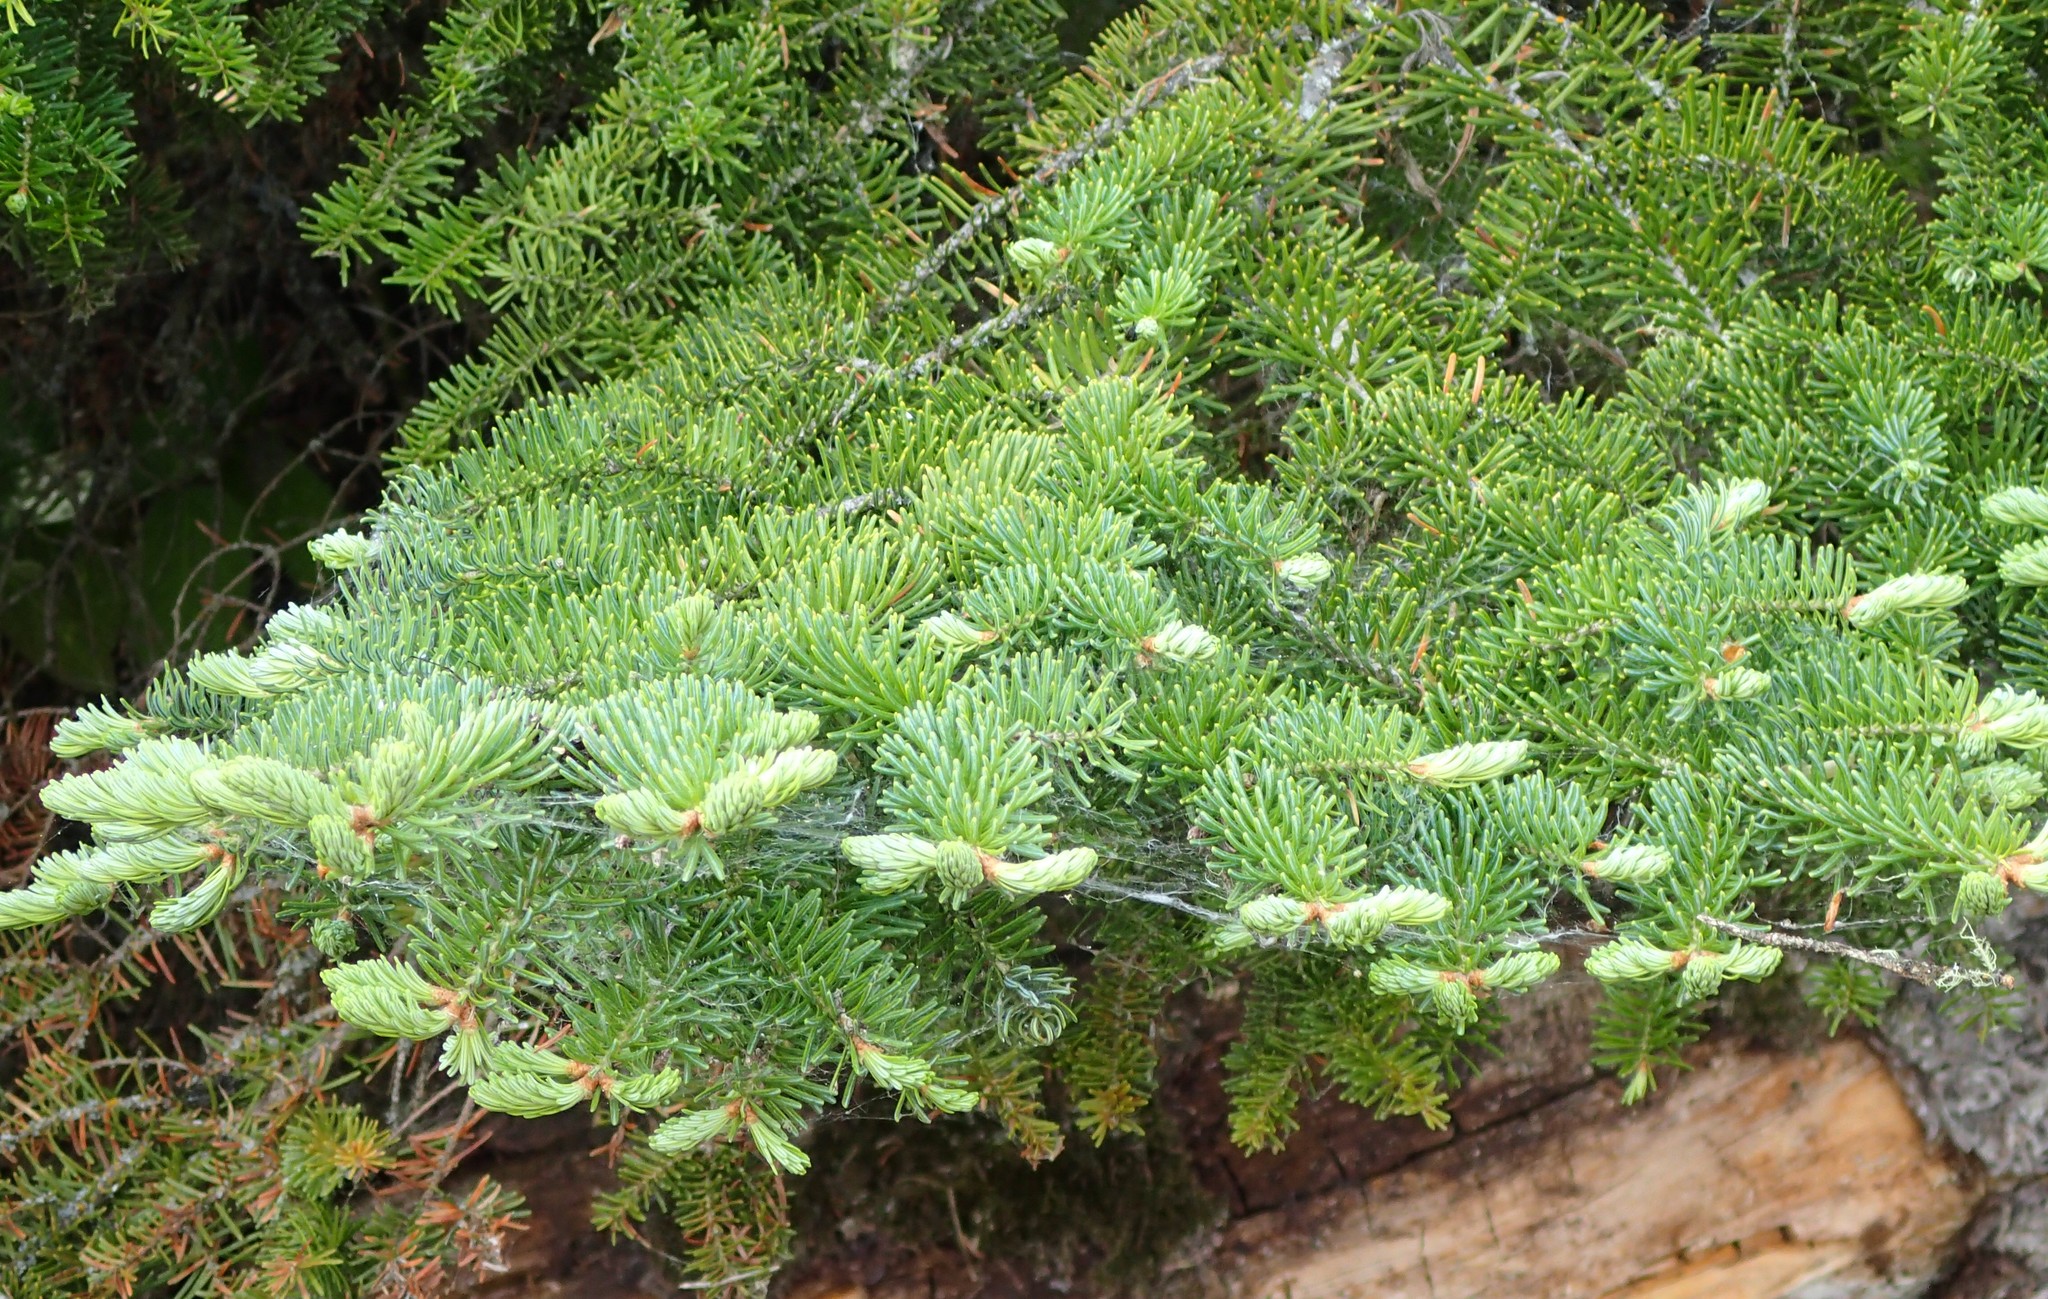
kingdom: Plantae
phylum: Tracheophyta
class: Pinopsida
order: Pinales
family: Pinaceae
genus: Picea
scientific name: Picea glauca
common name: White spruce
